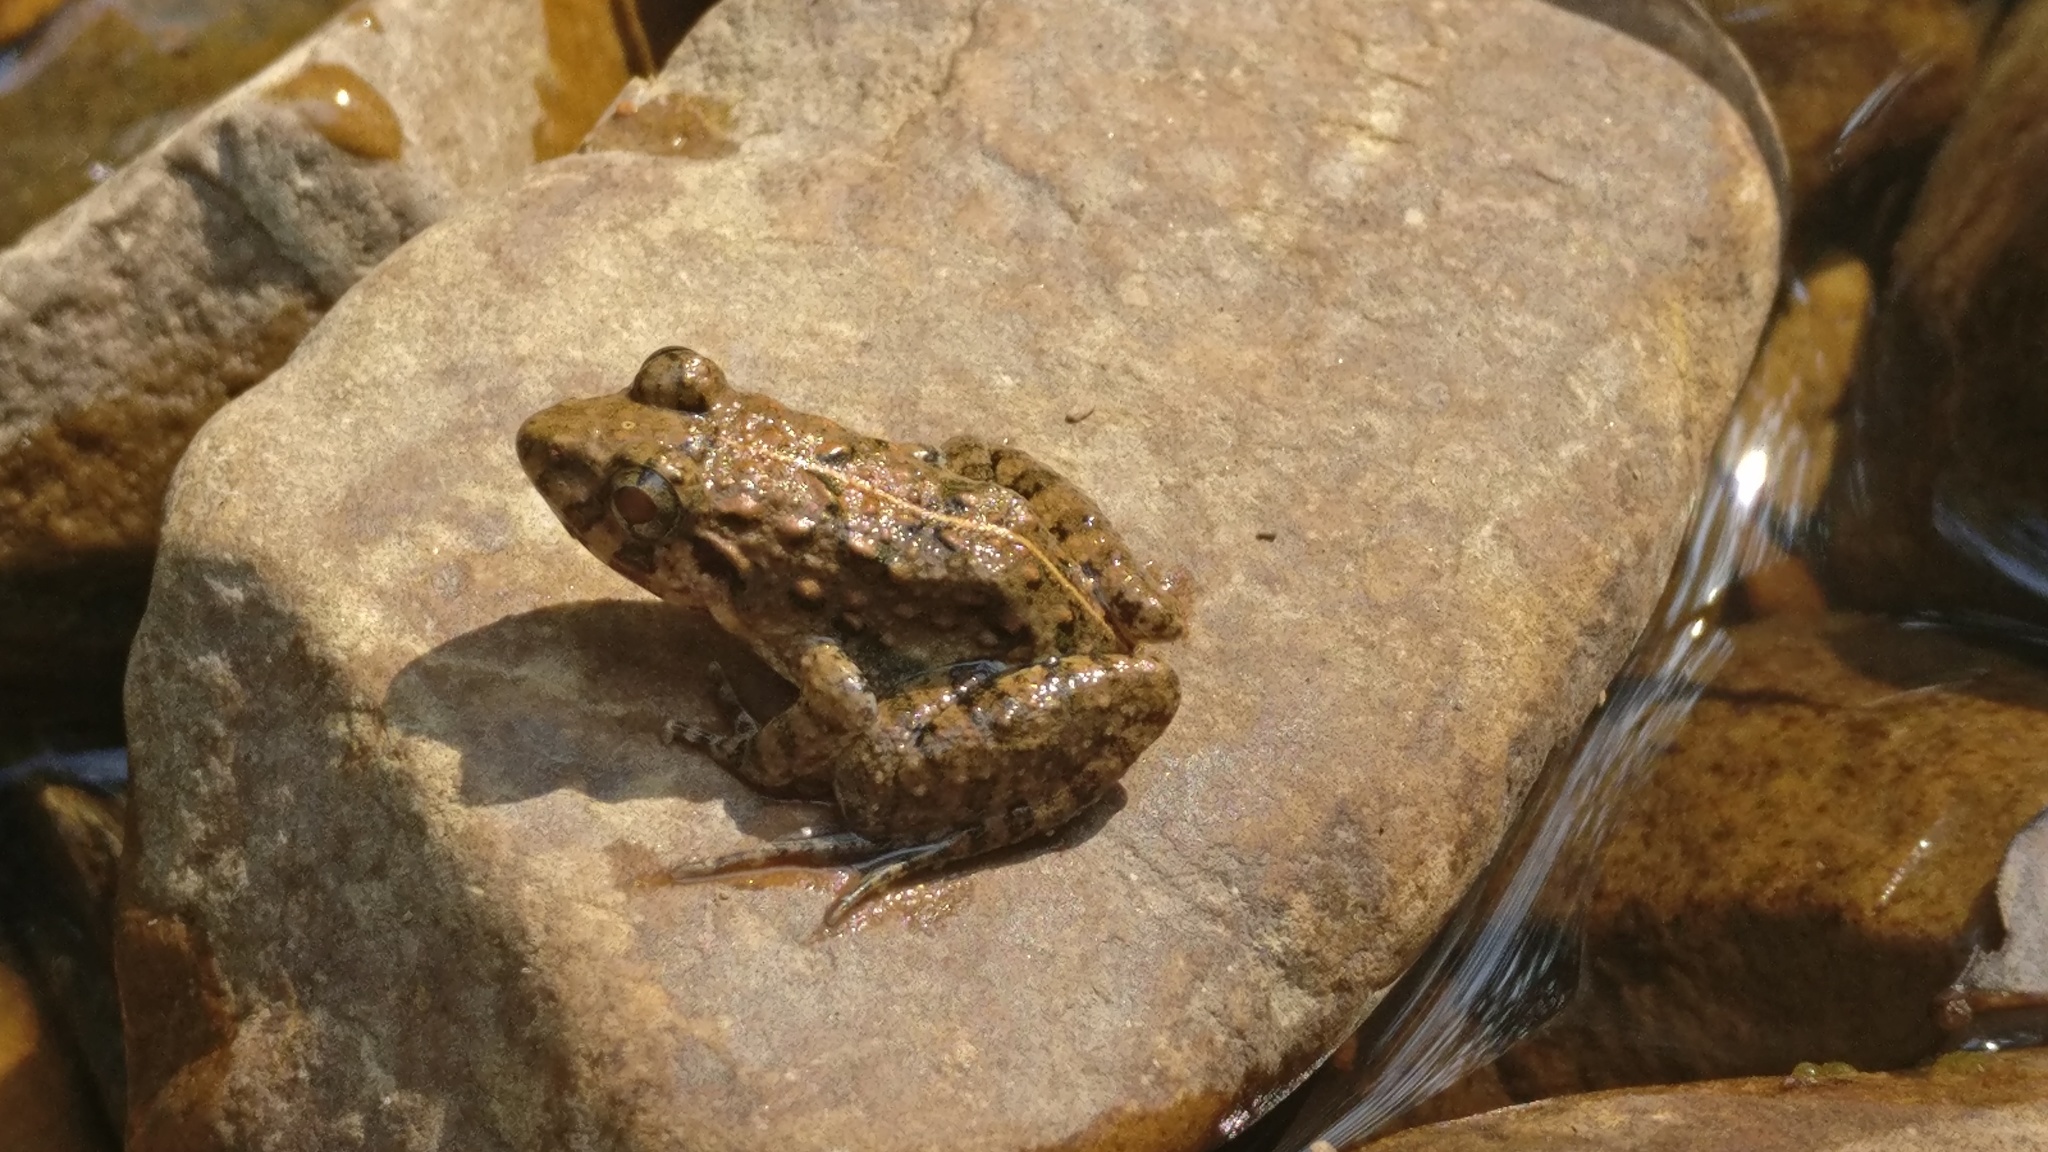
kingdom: Animalia
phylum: Chordata
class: Amphibia
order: Anura
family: Dicroglossidae
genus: Minervarya
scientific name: Minervarya agricola
